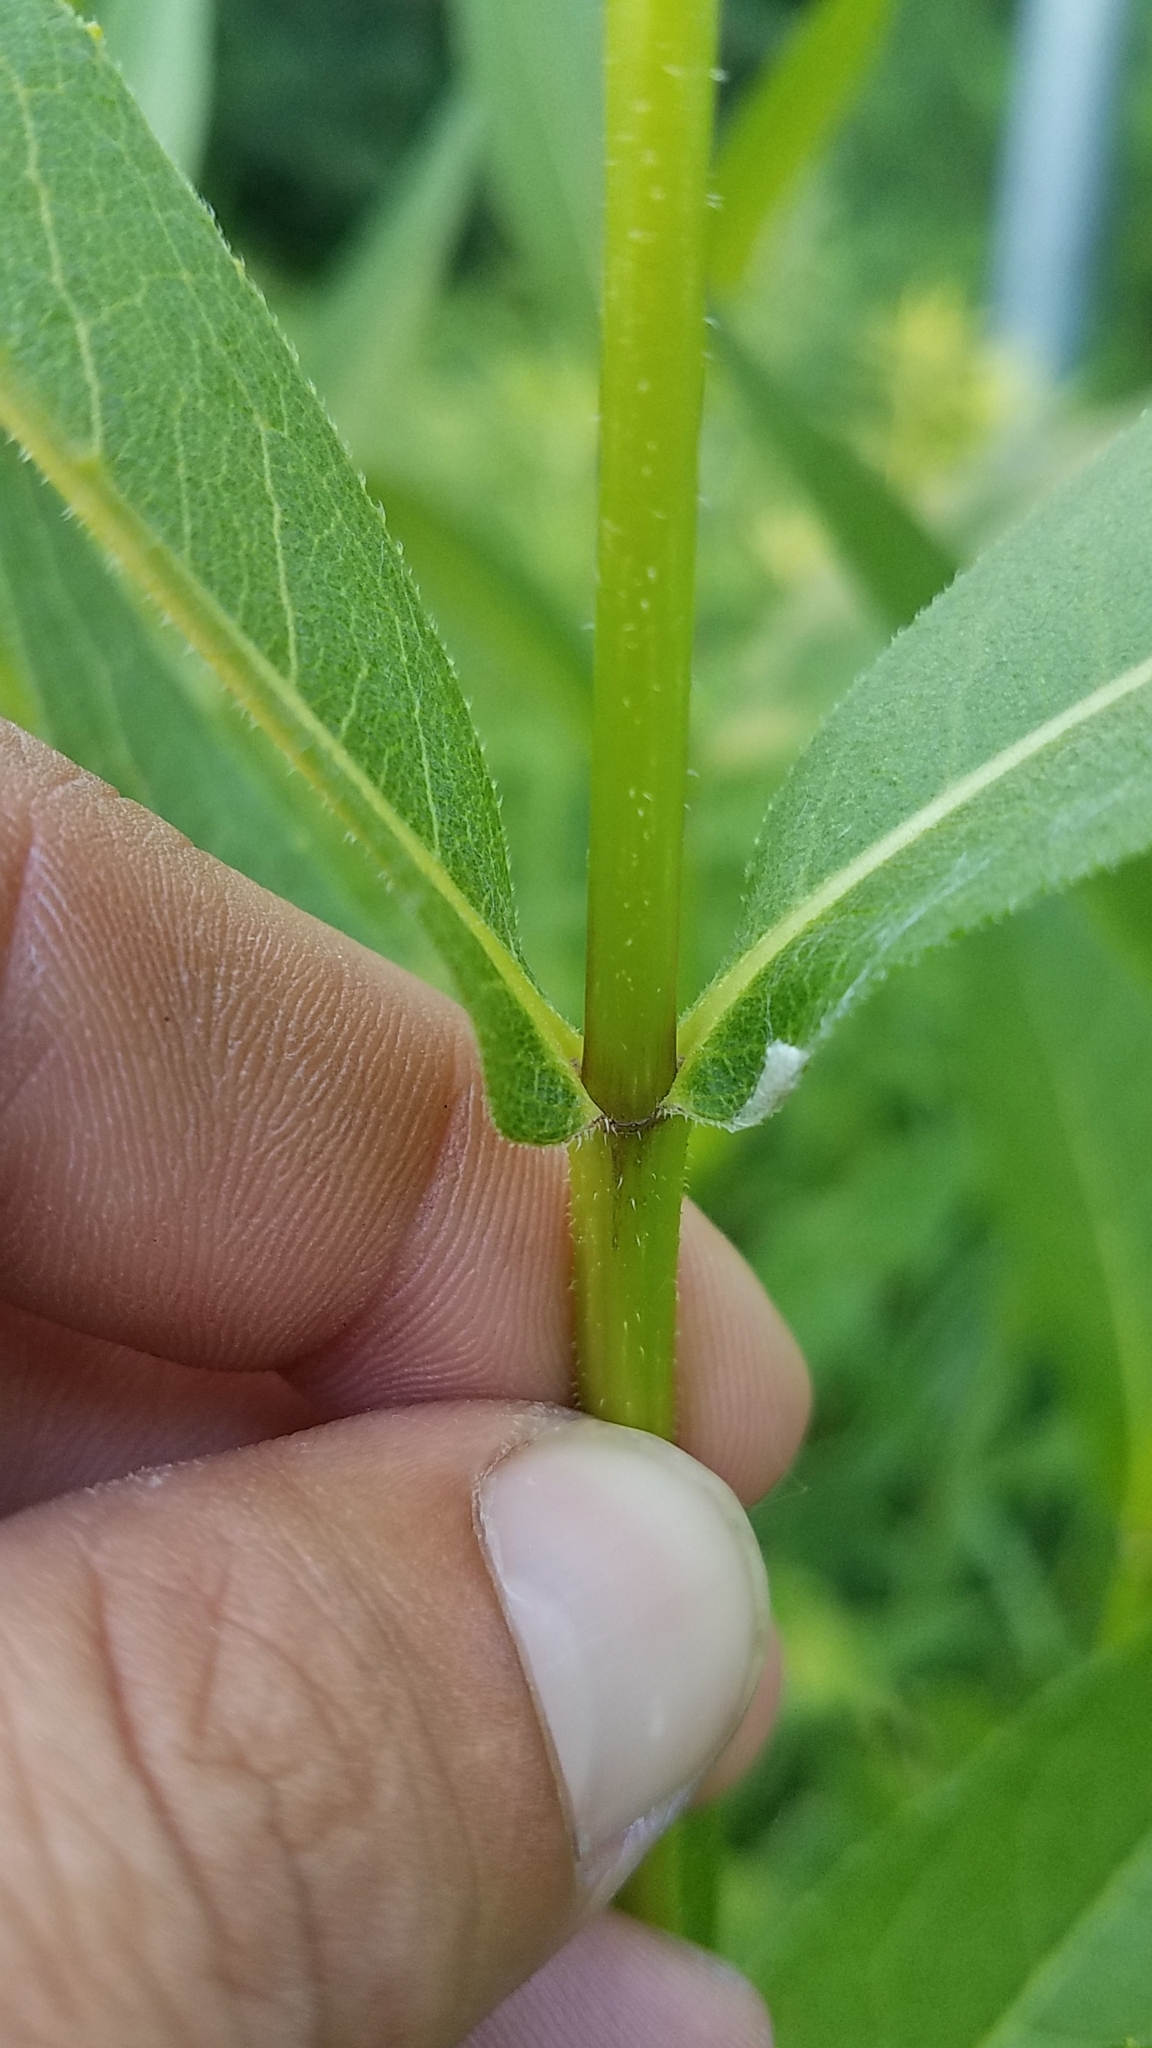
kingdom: Plantae
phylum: Tracheophyta
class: Magnoliopsida
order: Asterales
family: Asteraceae
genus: Silphium
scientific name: Silphium integrifolium
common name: Whole-leaf rosinweed
